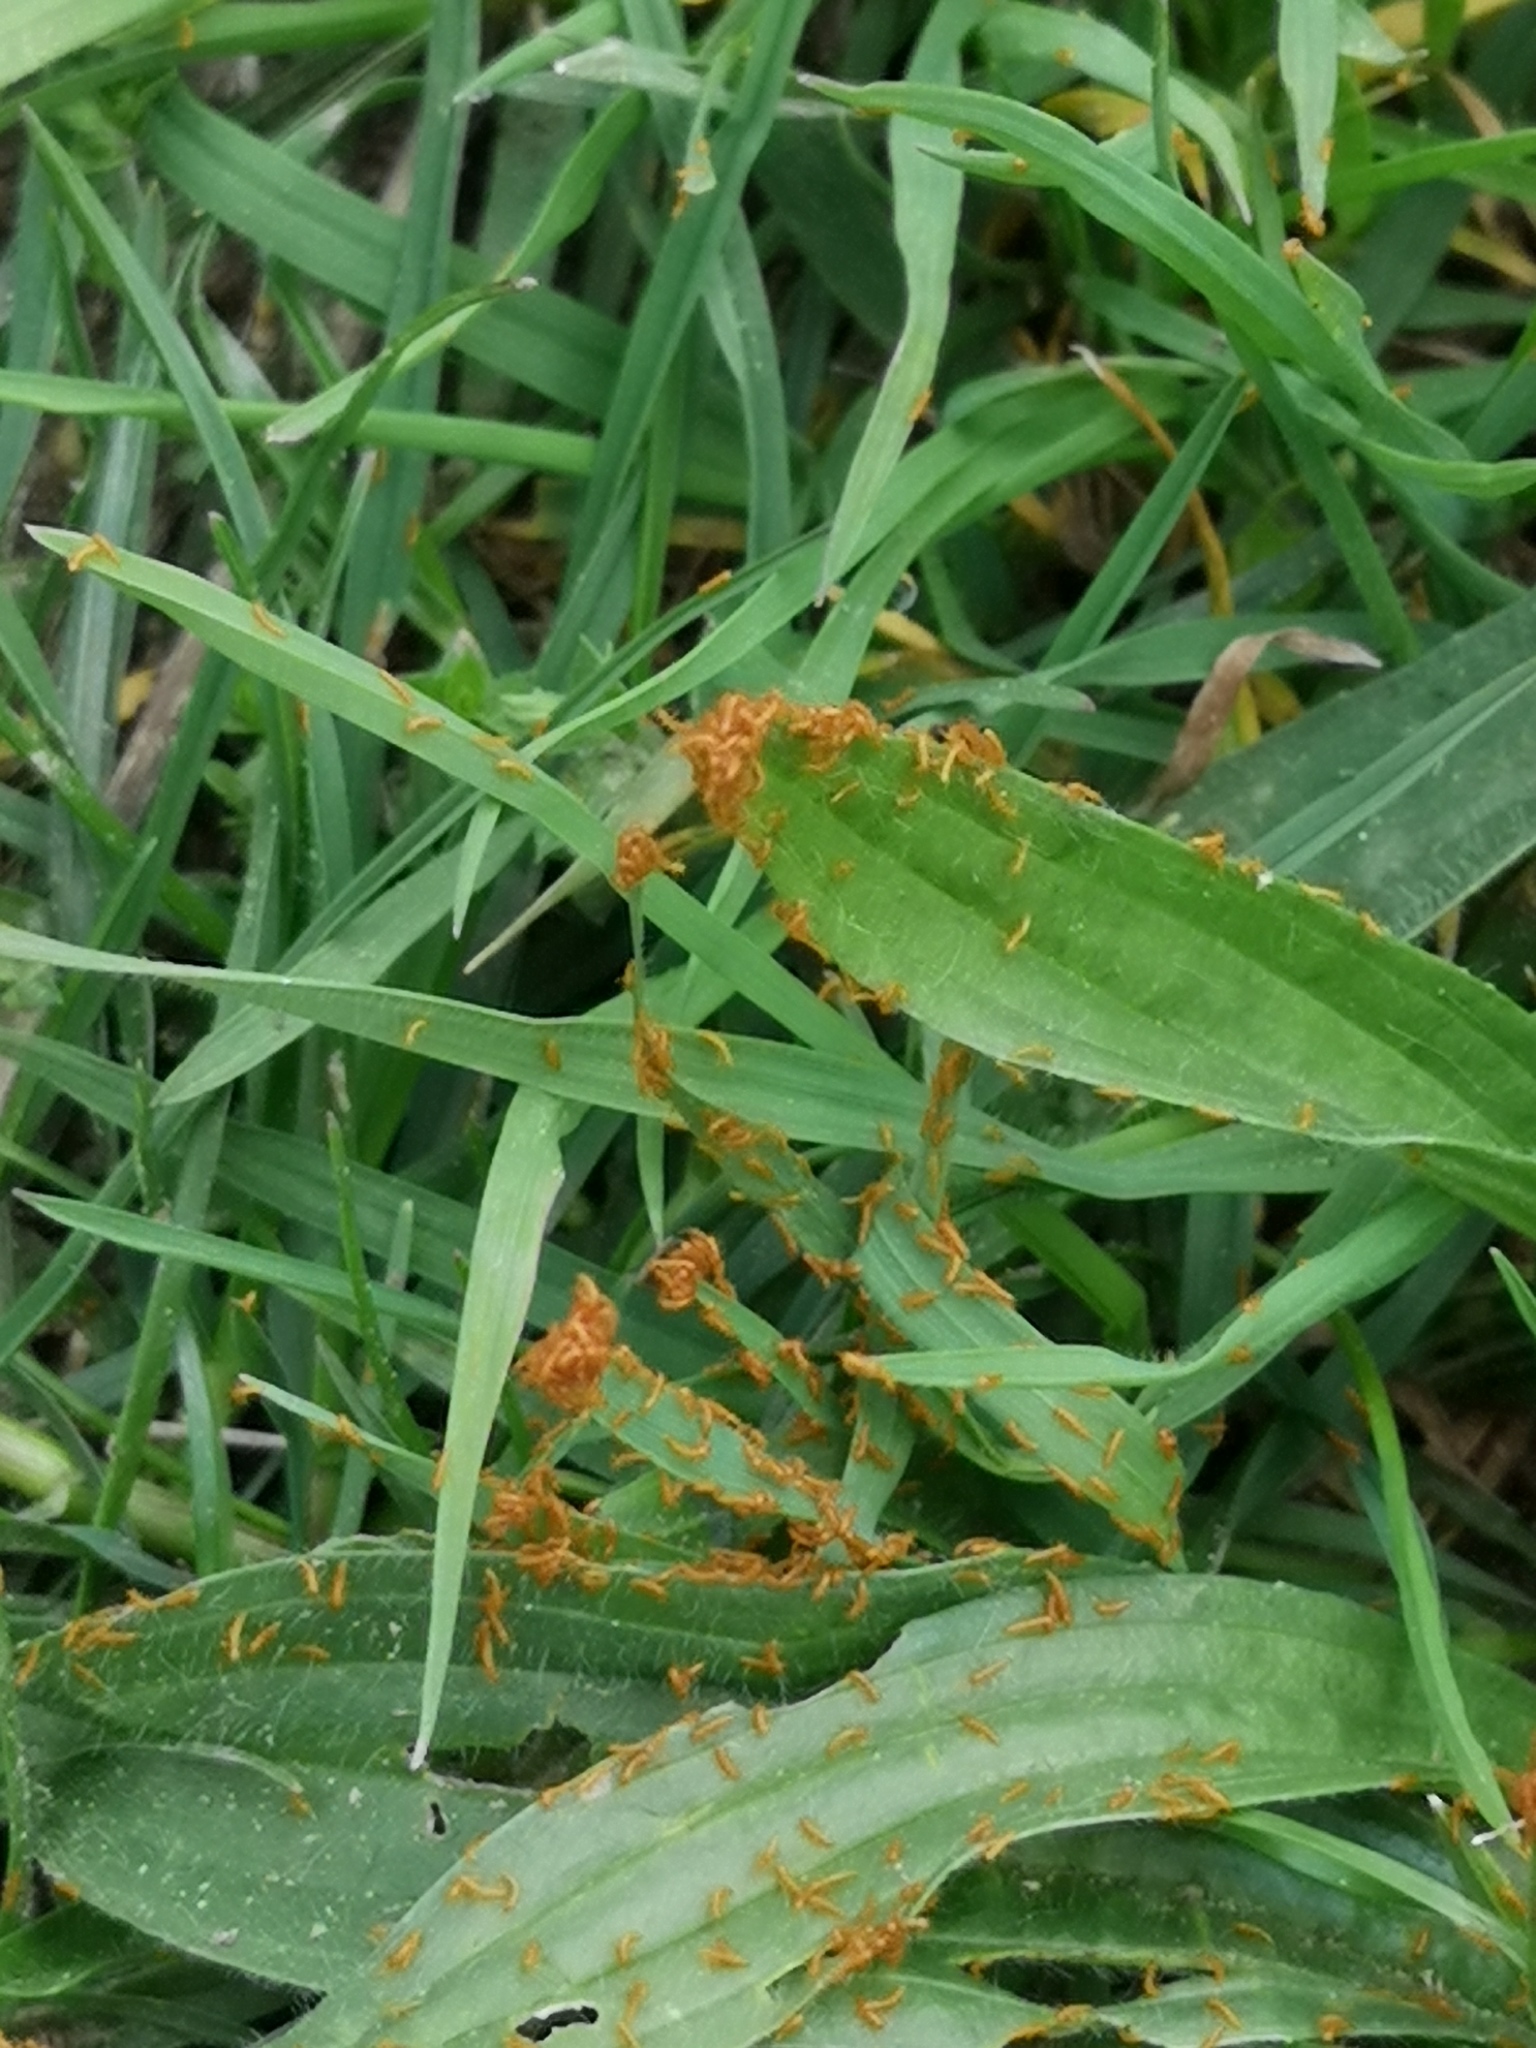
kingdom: Animalia
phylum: Arthropoda
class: Insecta
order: Coleoptera
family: Meloidae
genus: Meloe
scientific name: Meloe proscarabaeus
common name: Black oil-beetle
